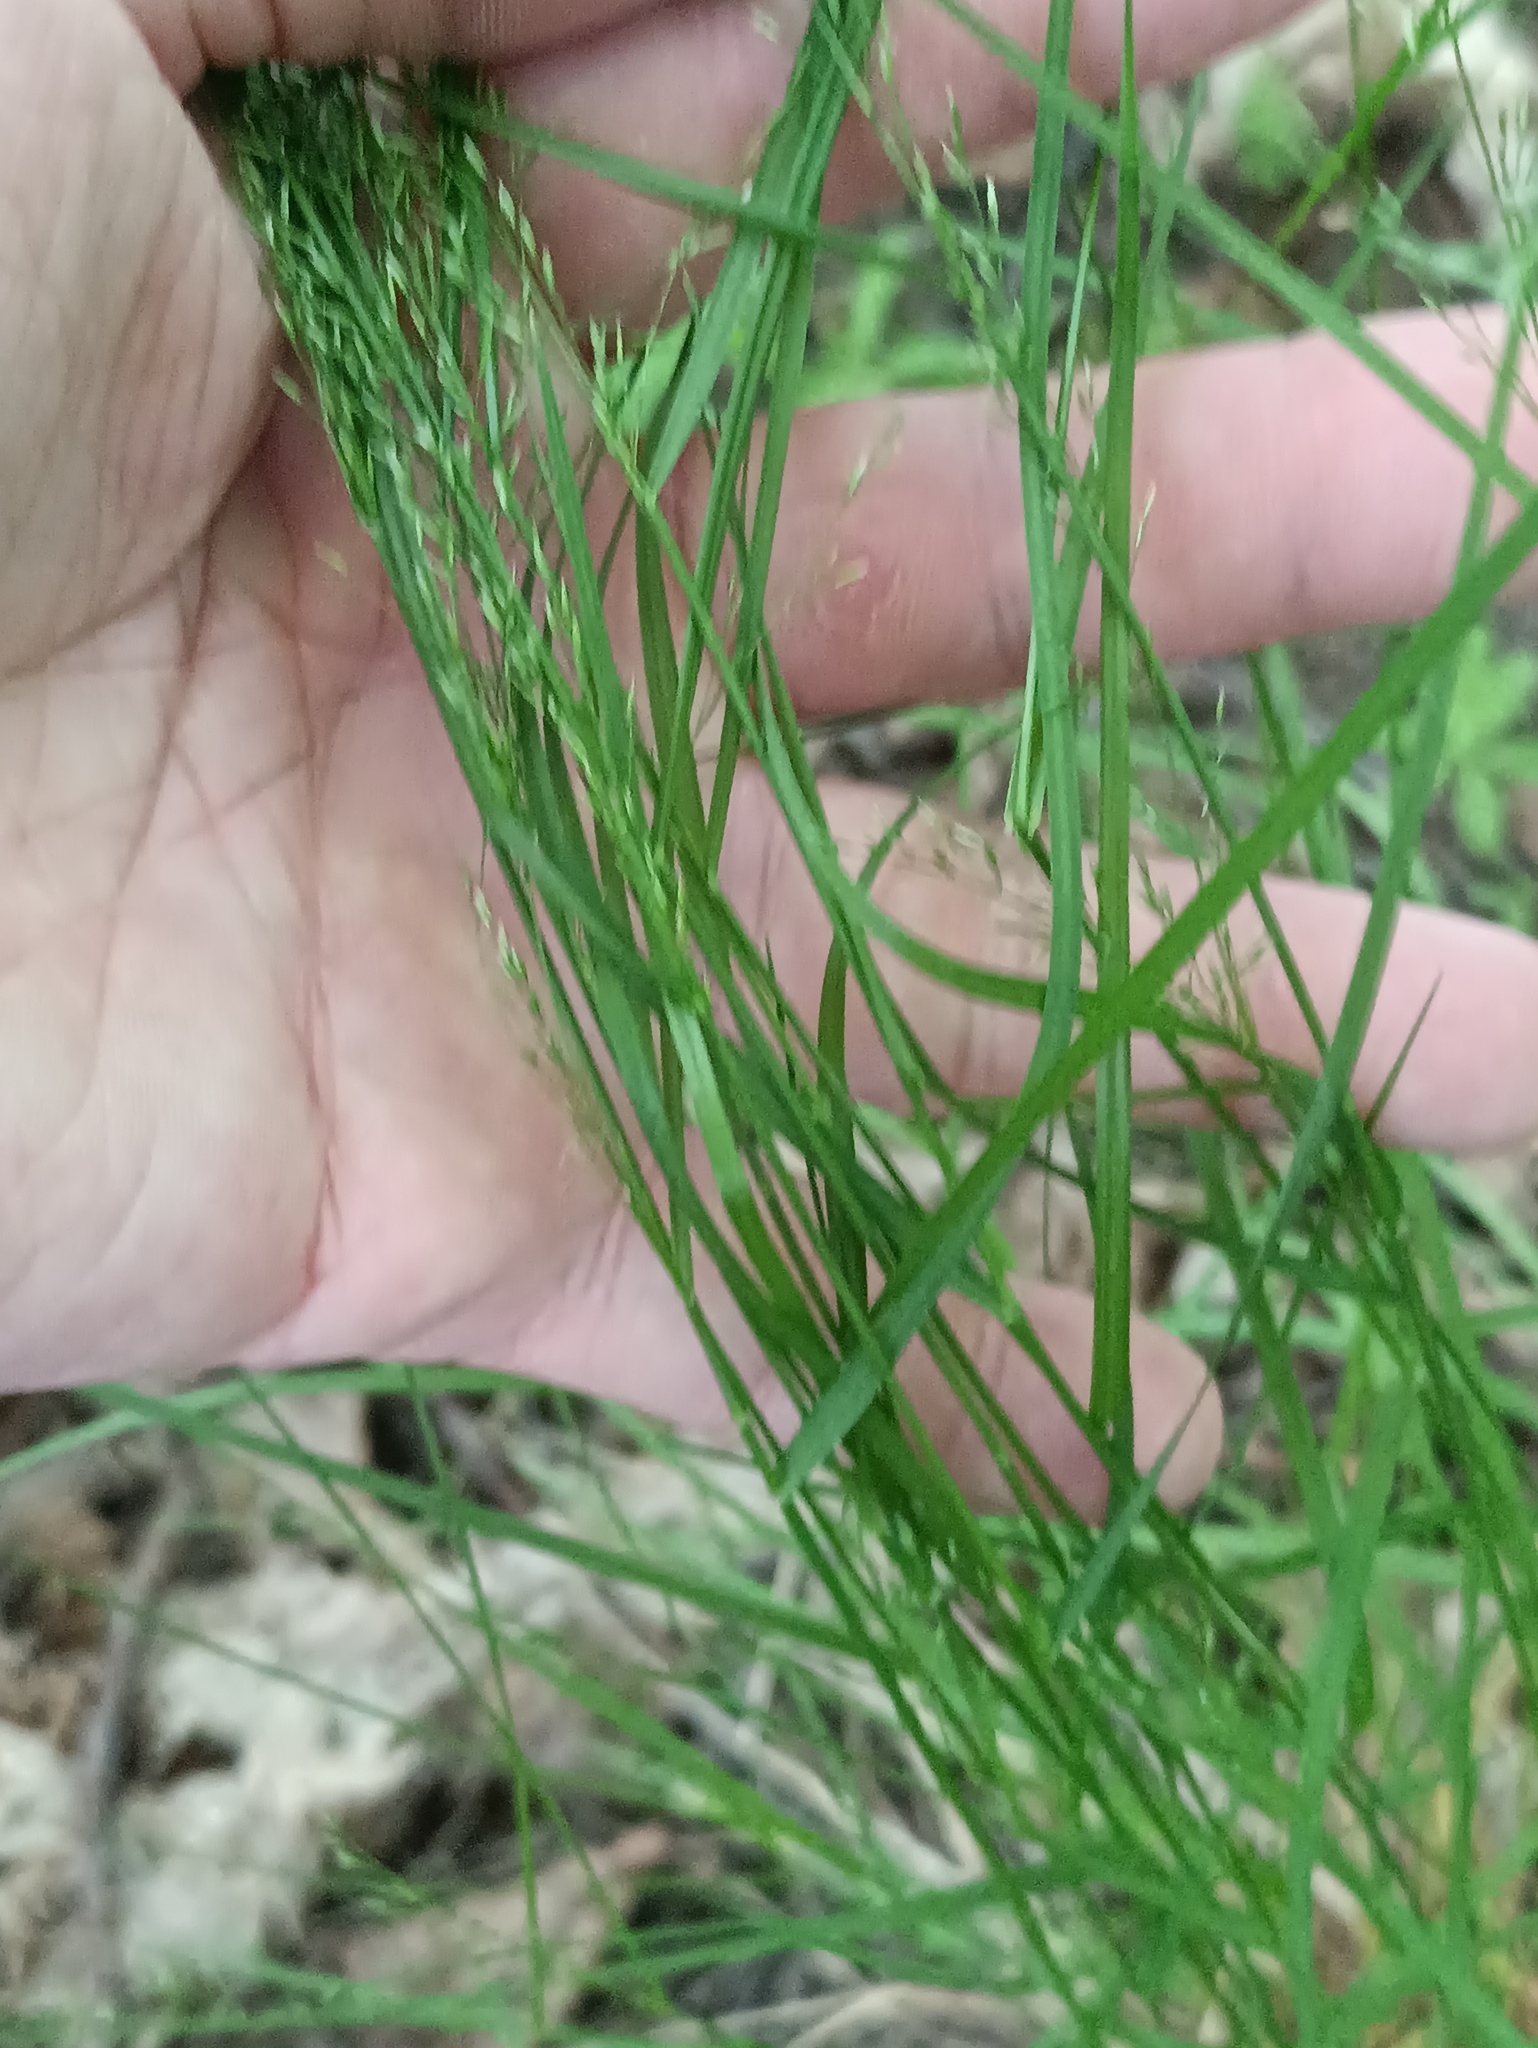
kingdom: Plantae
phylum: Tracheophyta
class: Liliopsida
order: Poales
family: Poaceae
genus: Poa
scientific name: Poa nemoralis
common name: Wood bluegrass
